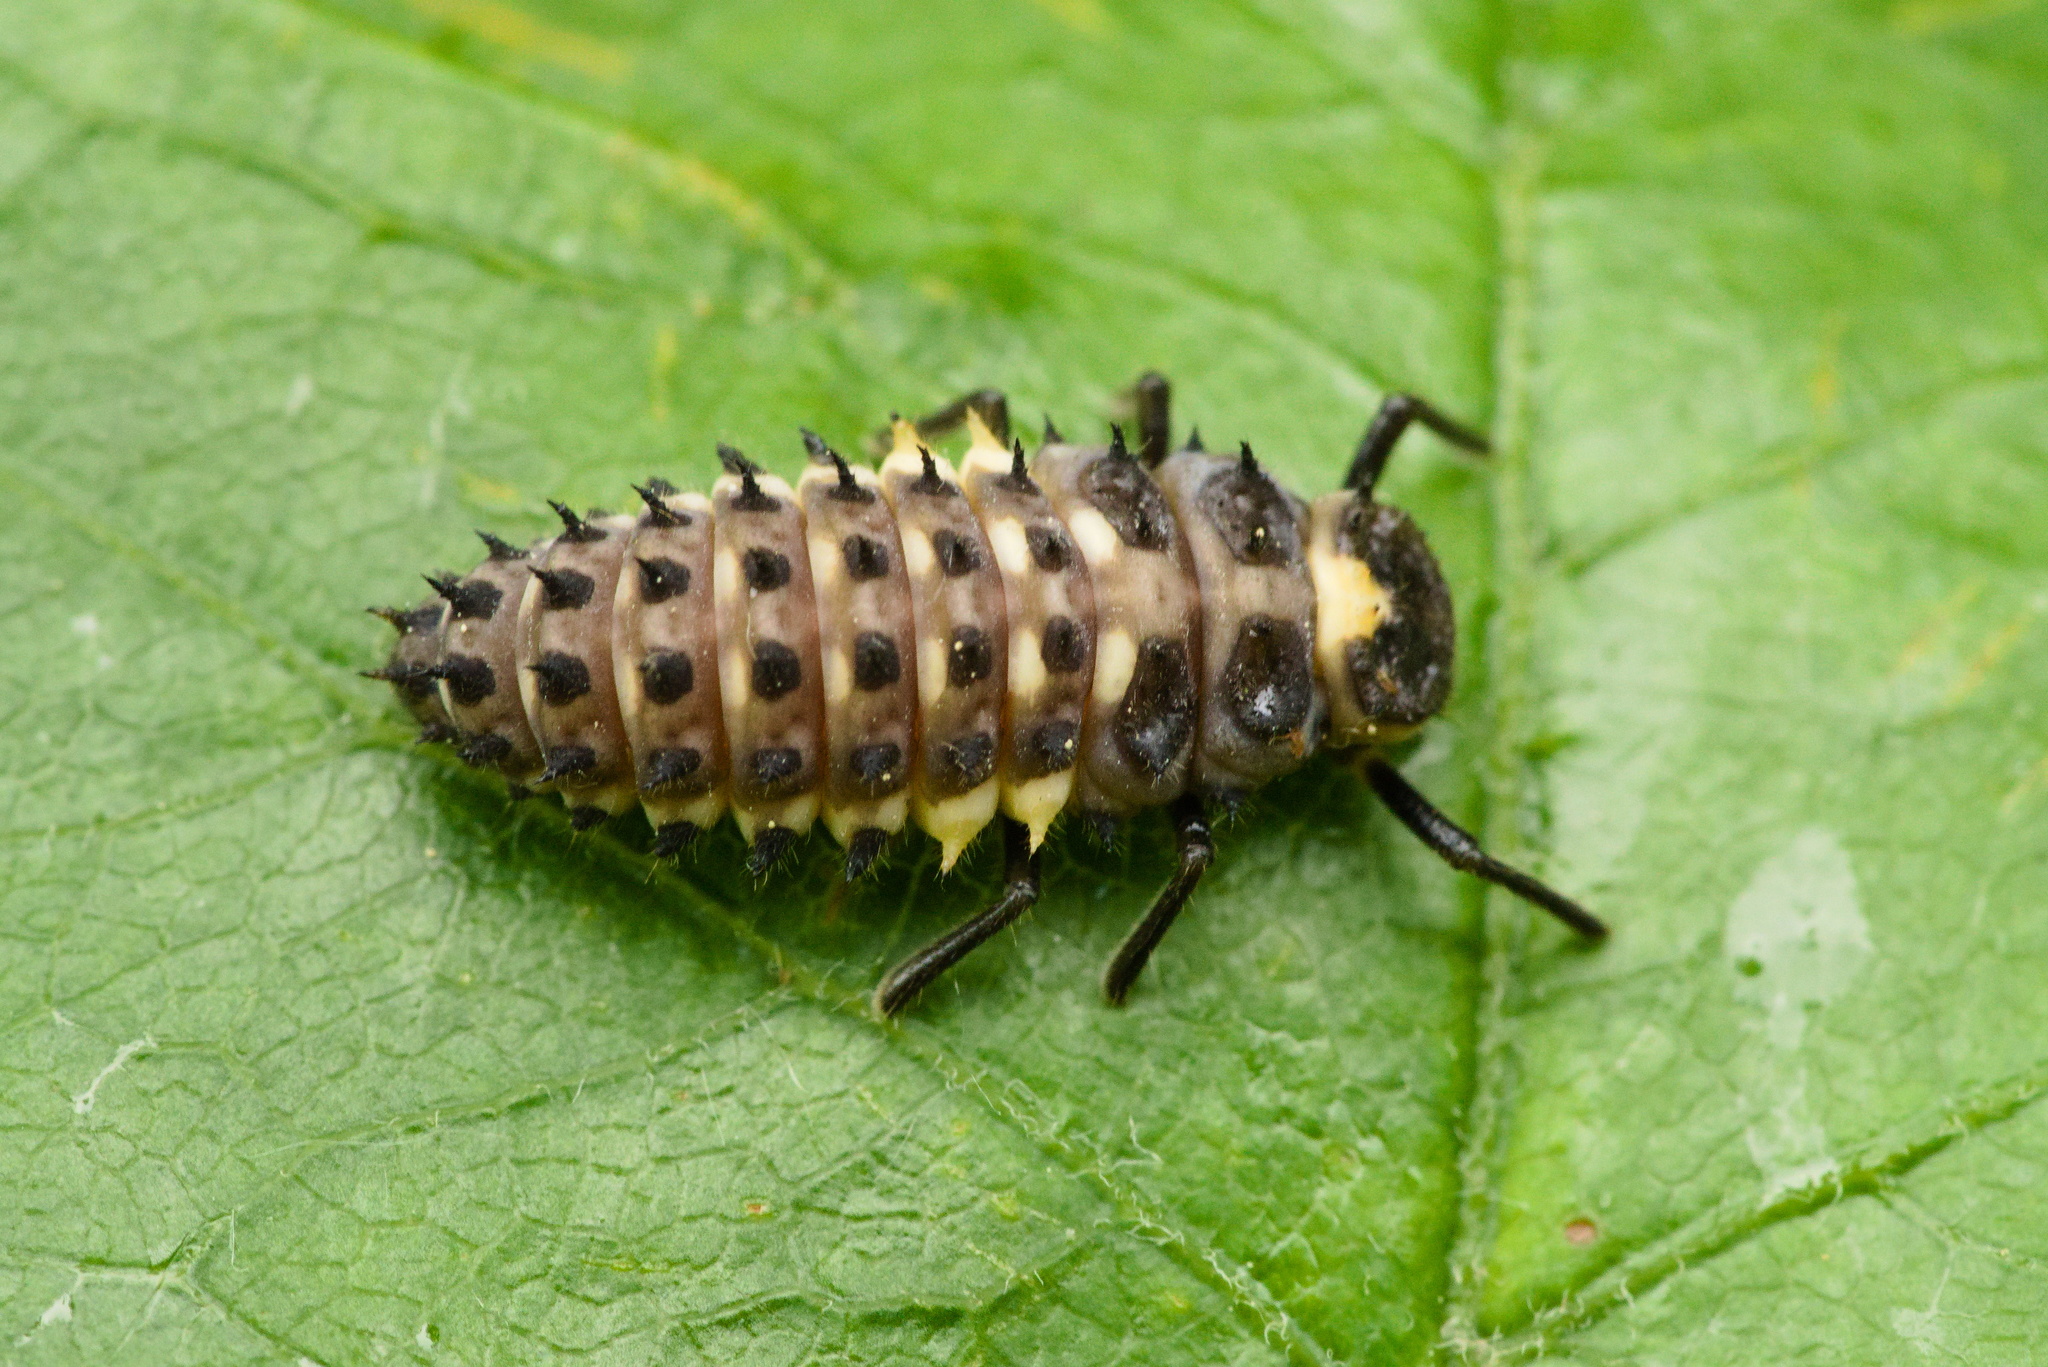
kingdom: Animalia
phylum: Arthropoda
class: Insecta
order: Coleoptera
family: Coccinellidae
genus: Anatis
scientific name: Anatis ocellata
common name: Eyed ladybird
